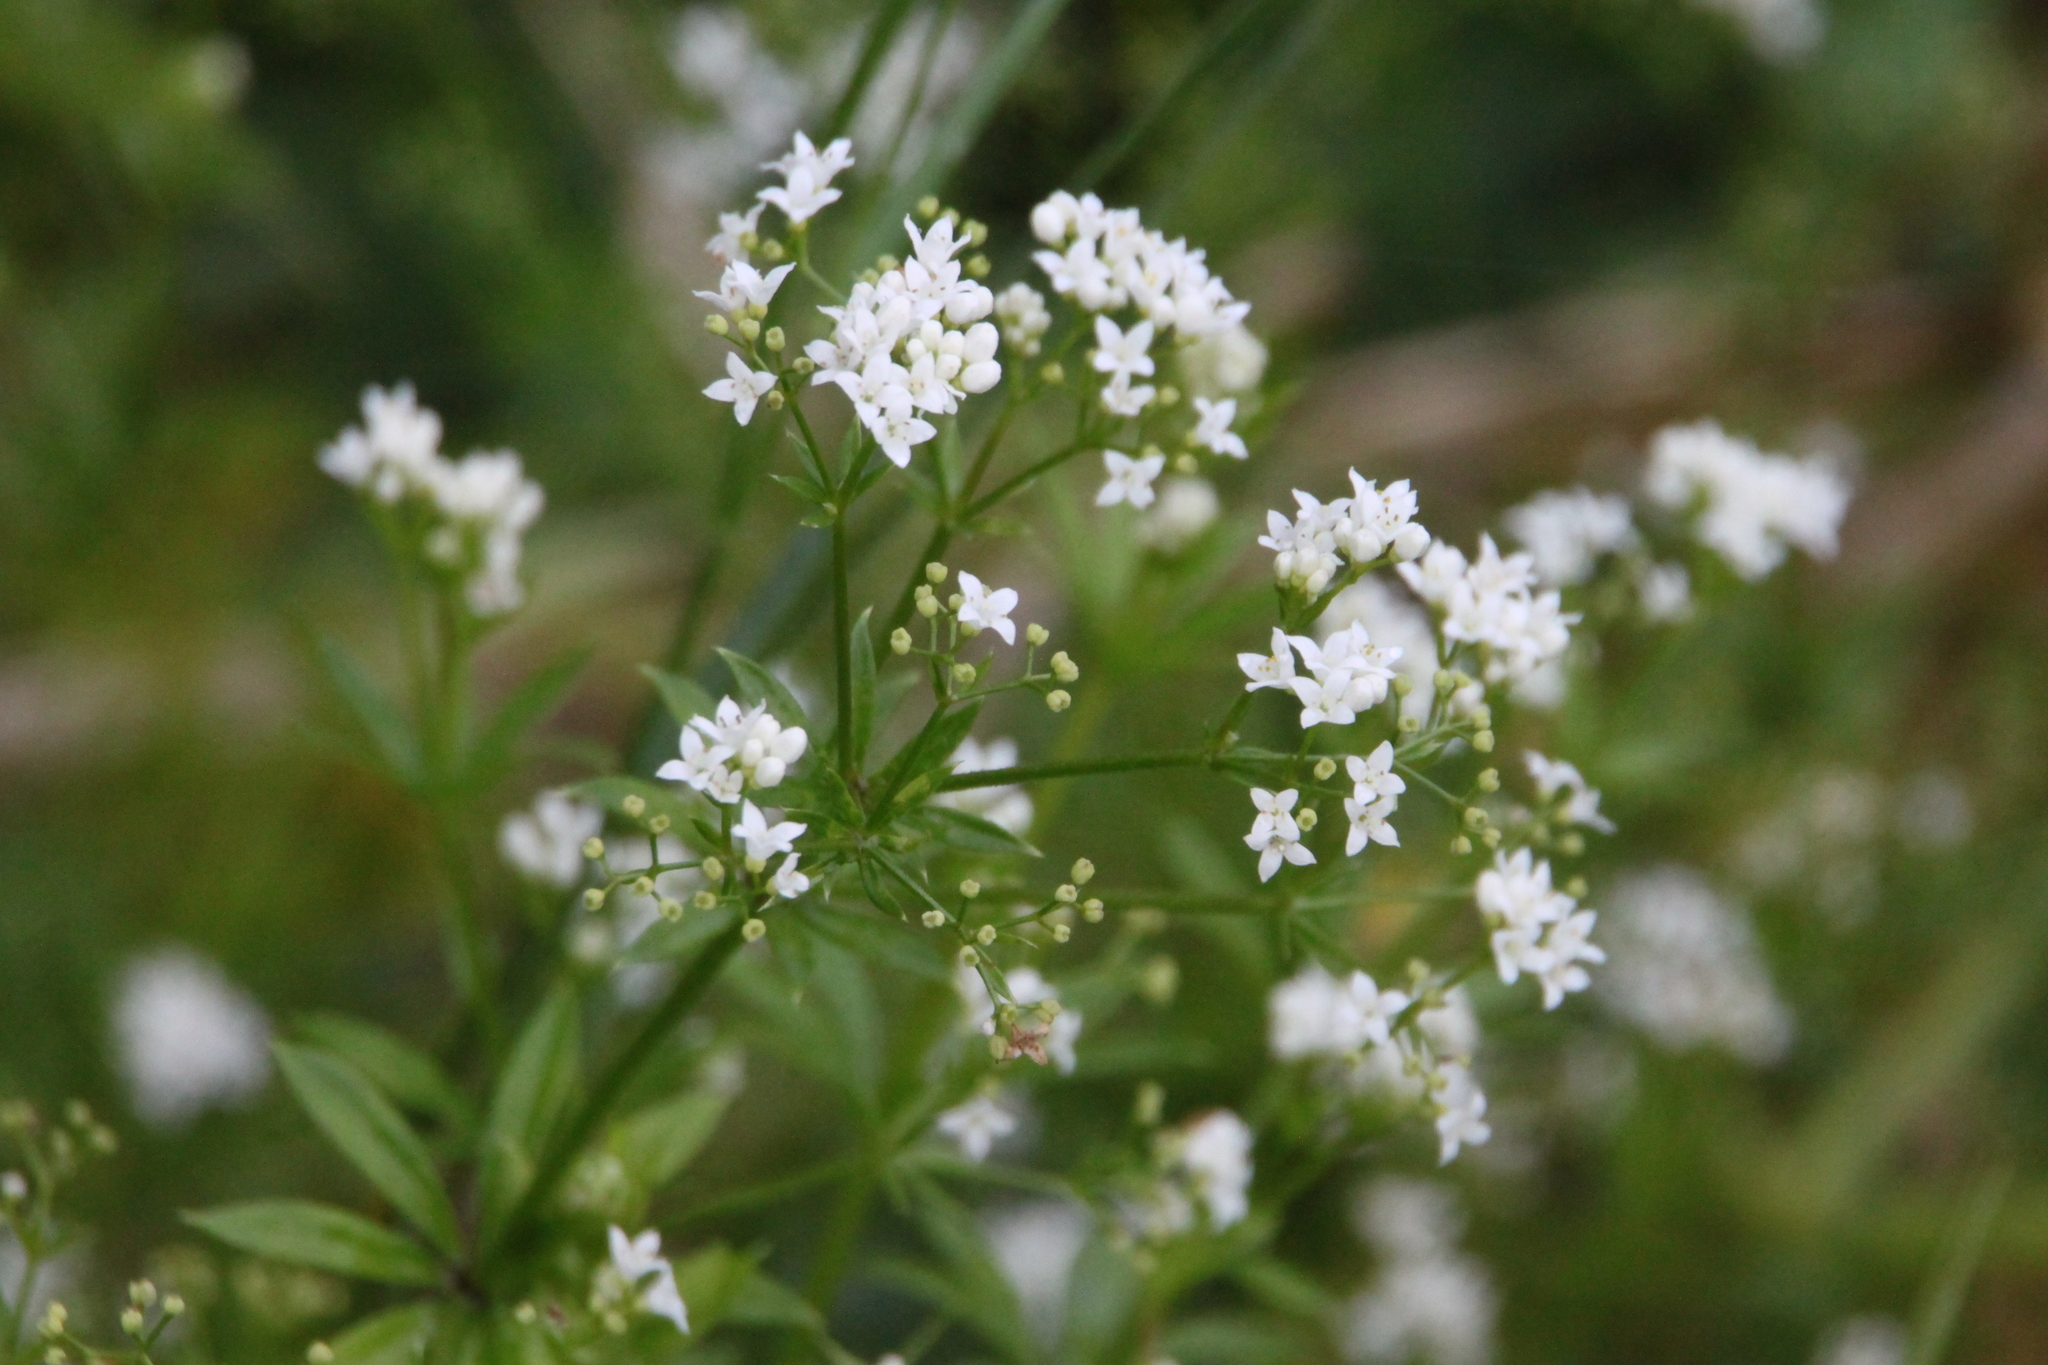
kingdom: Plantae
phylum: Tracheophyta
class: Magnoliopsida
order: Gentianales
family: Rubiaceae
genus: Galium
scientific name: Galium rivale
